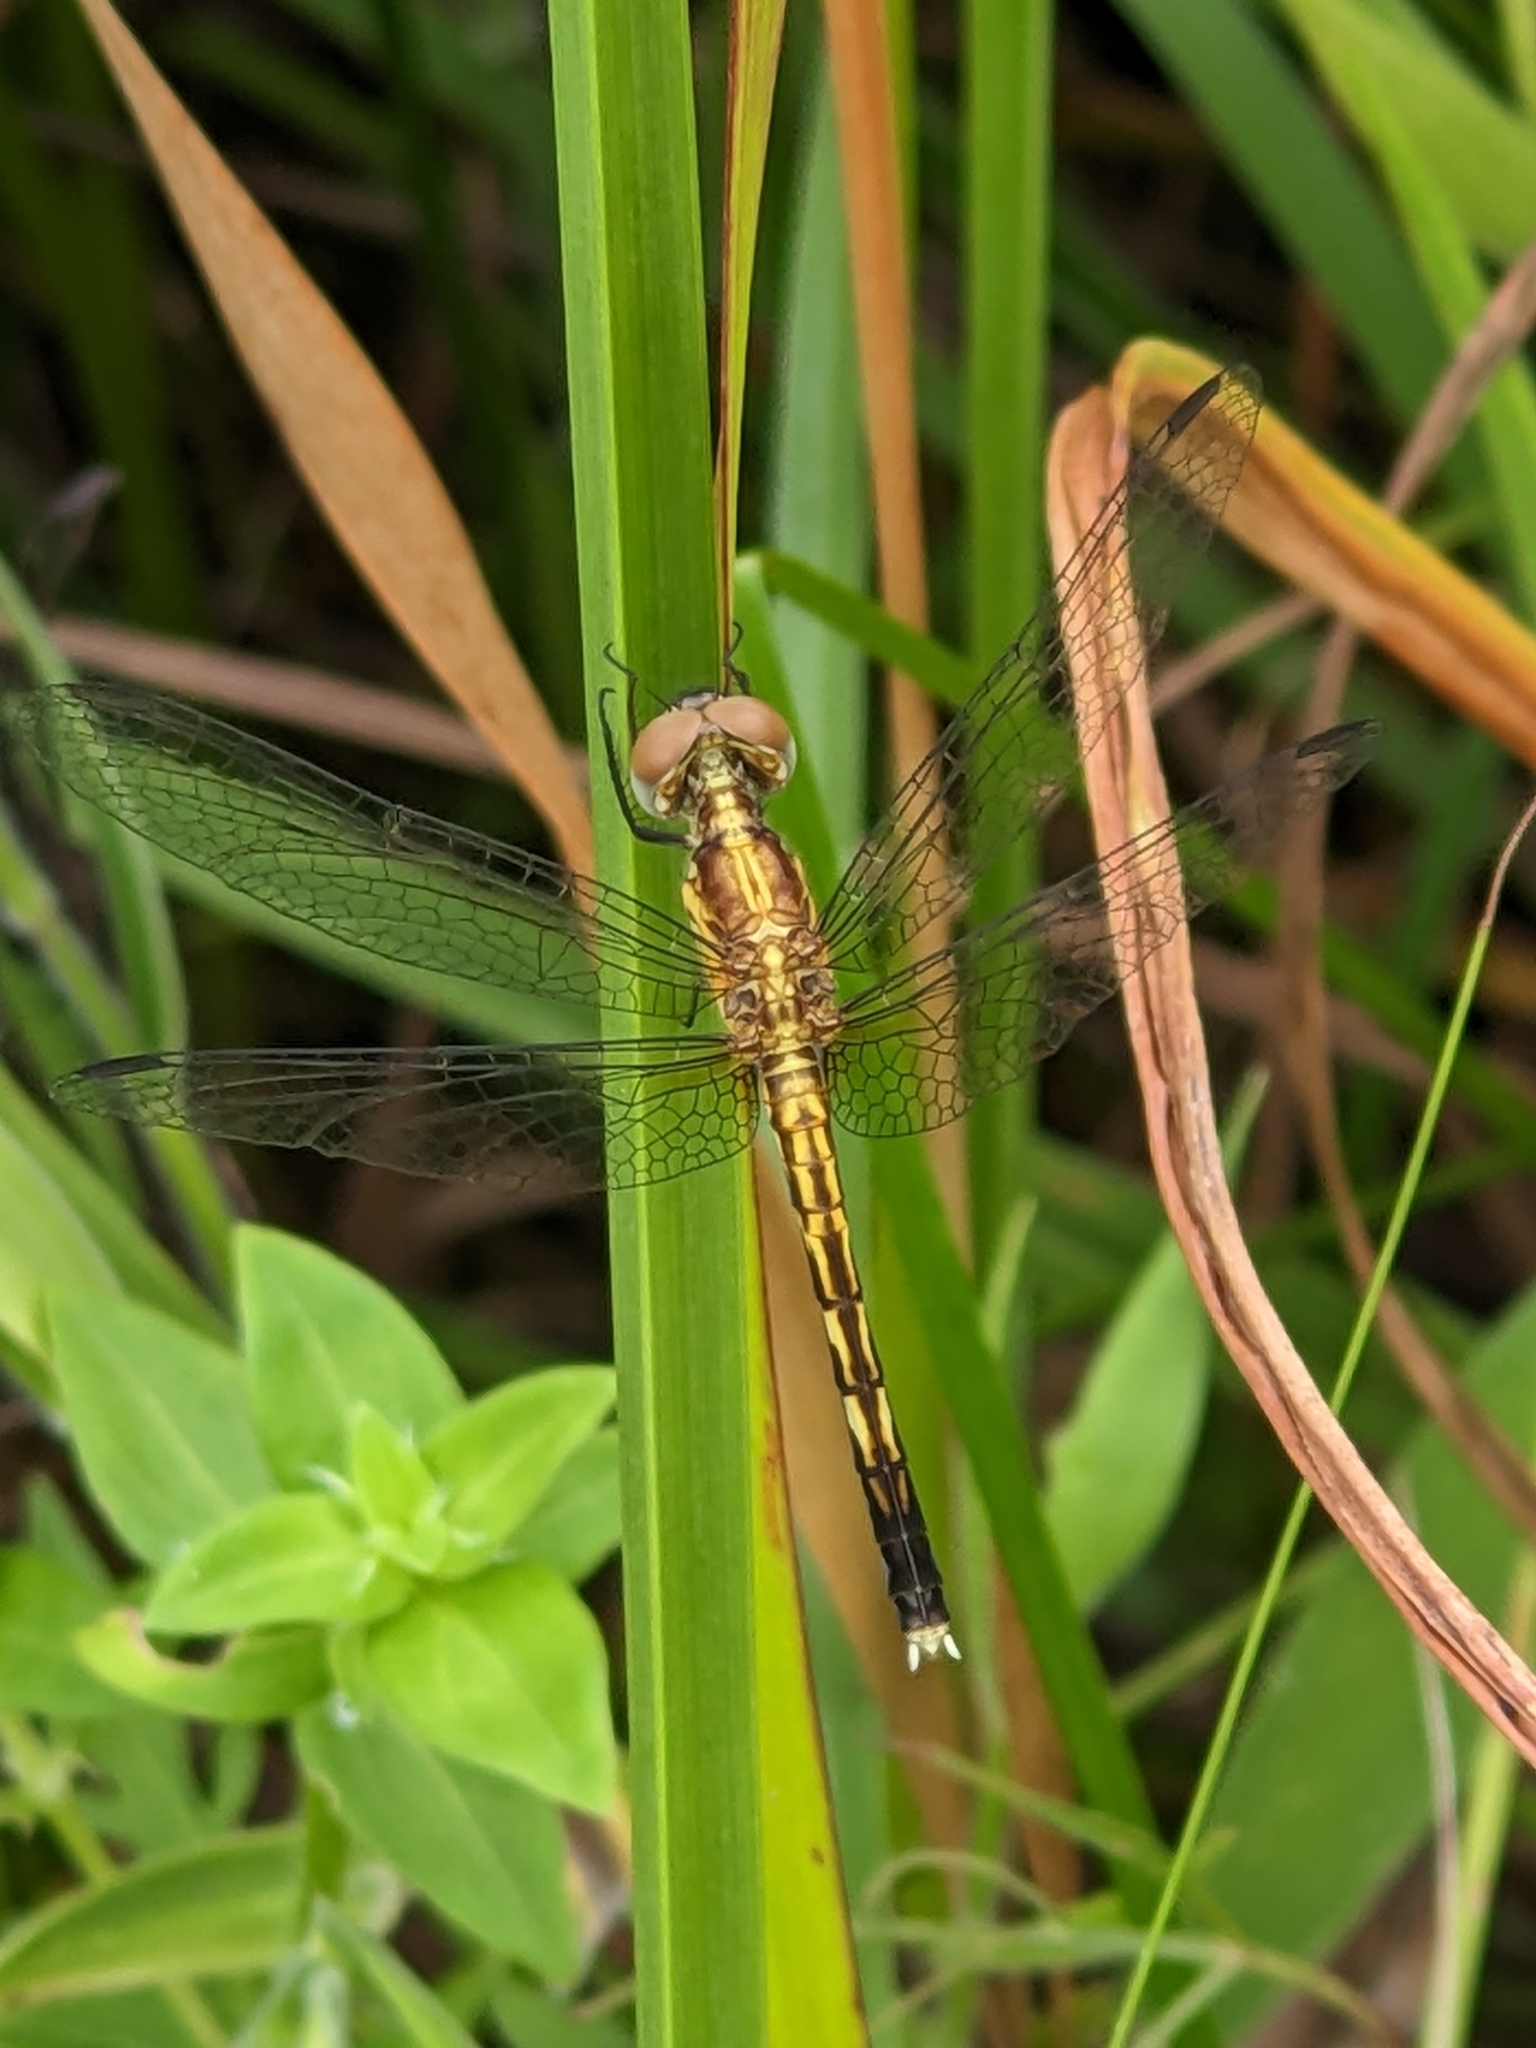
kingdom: Animalia
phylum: Arthropoda
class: Insecta
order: Odonata
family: Libellulidae
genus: Erythrodiplax
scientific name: Erythrodiplax minuscula
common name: Little blue dragonlet
